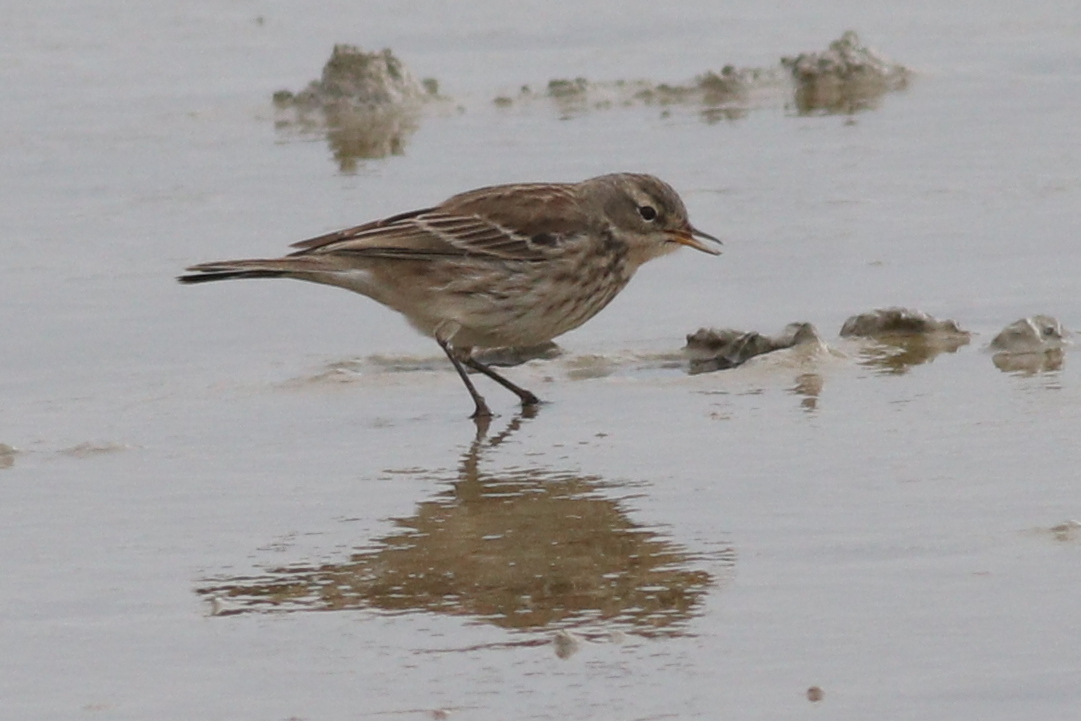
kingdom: Animalia
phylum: Chordata
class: Aves
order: Passeriformes
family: Motacillidae
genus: Anthus
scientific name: Anthus spinoletta
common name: Water pipit
